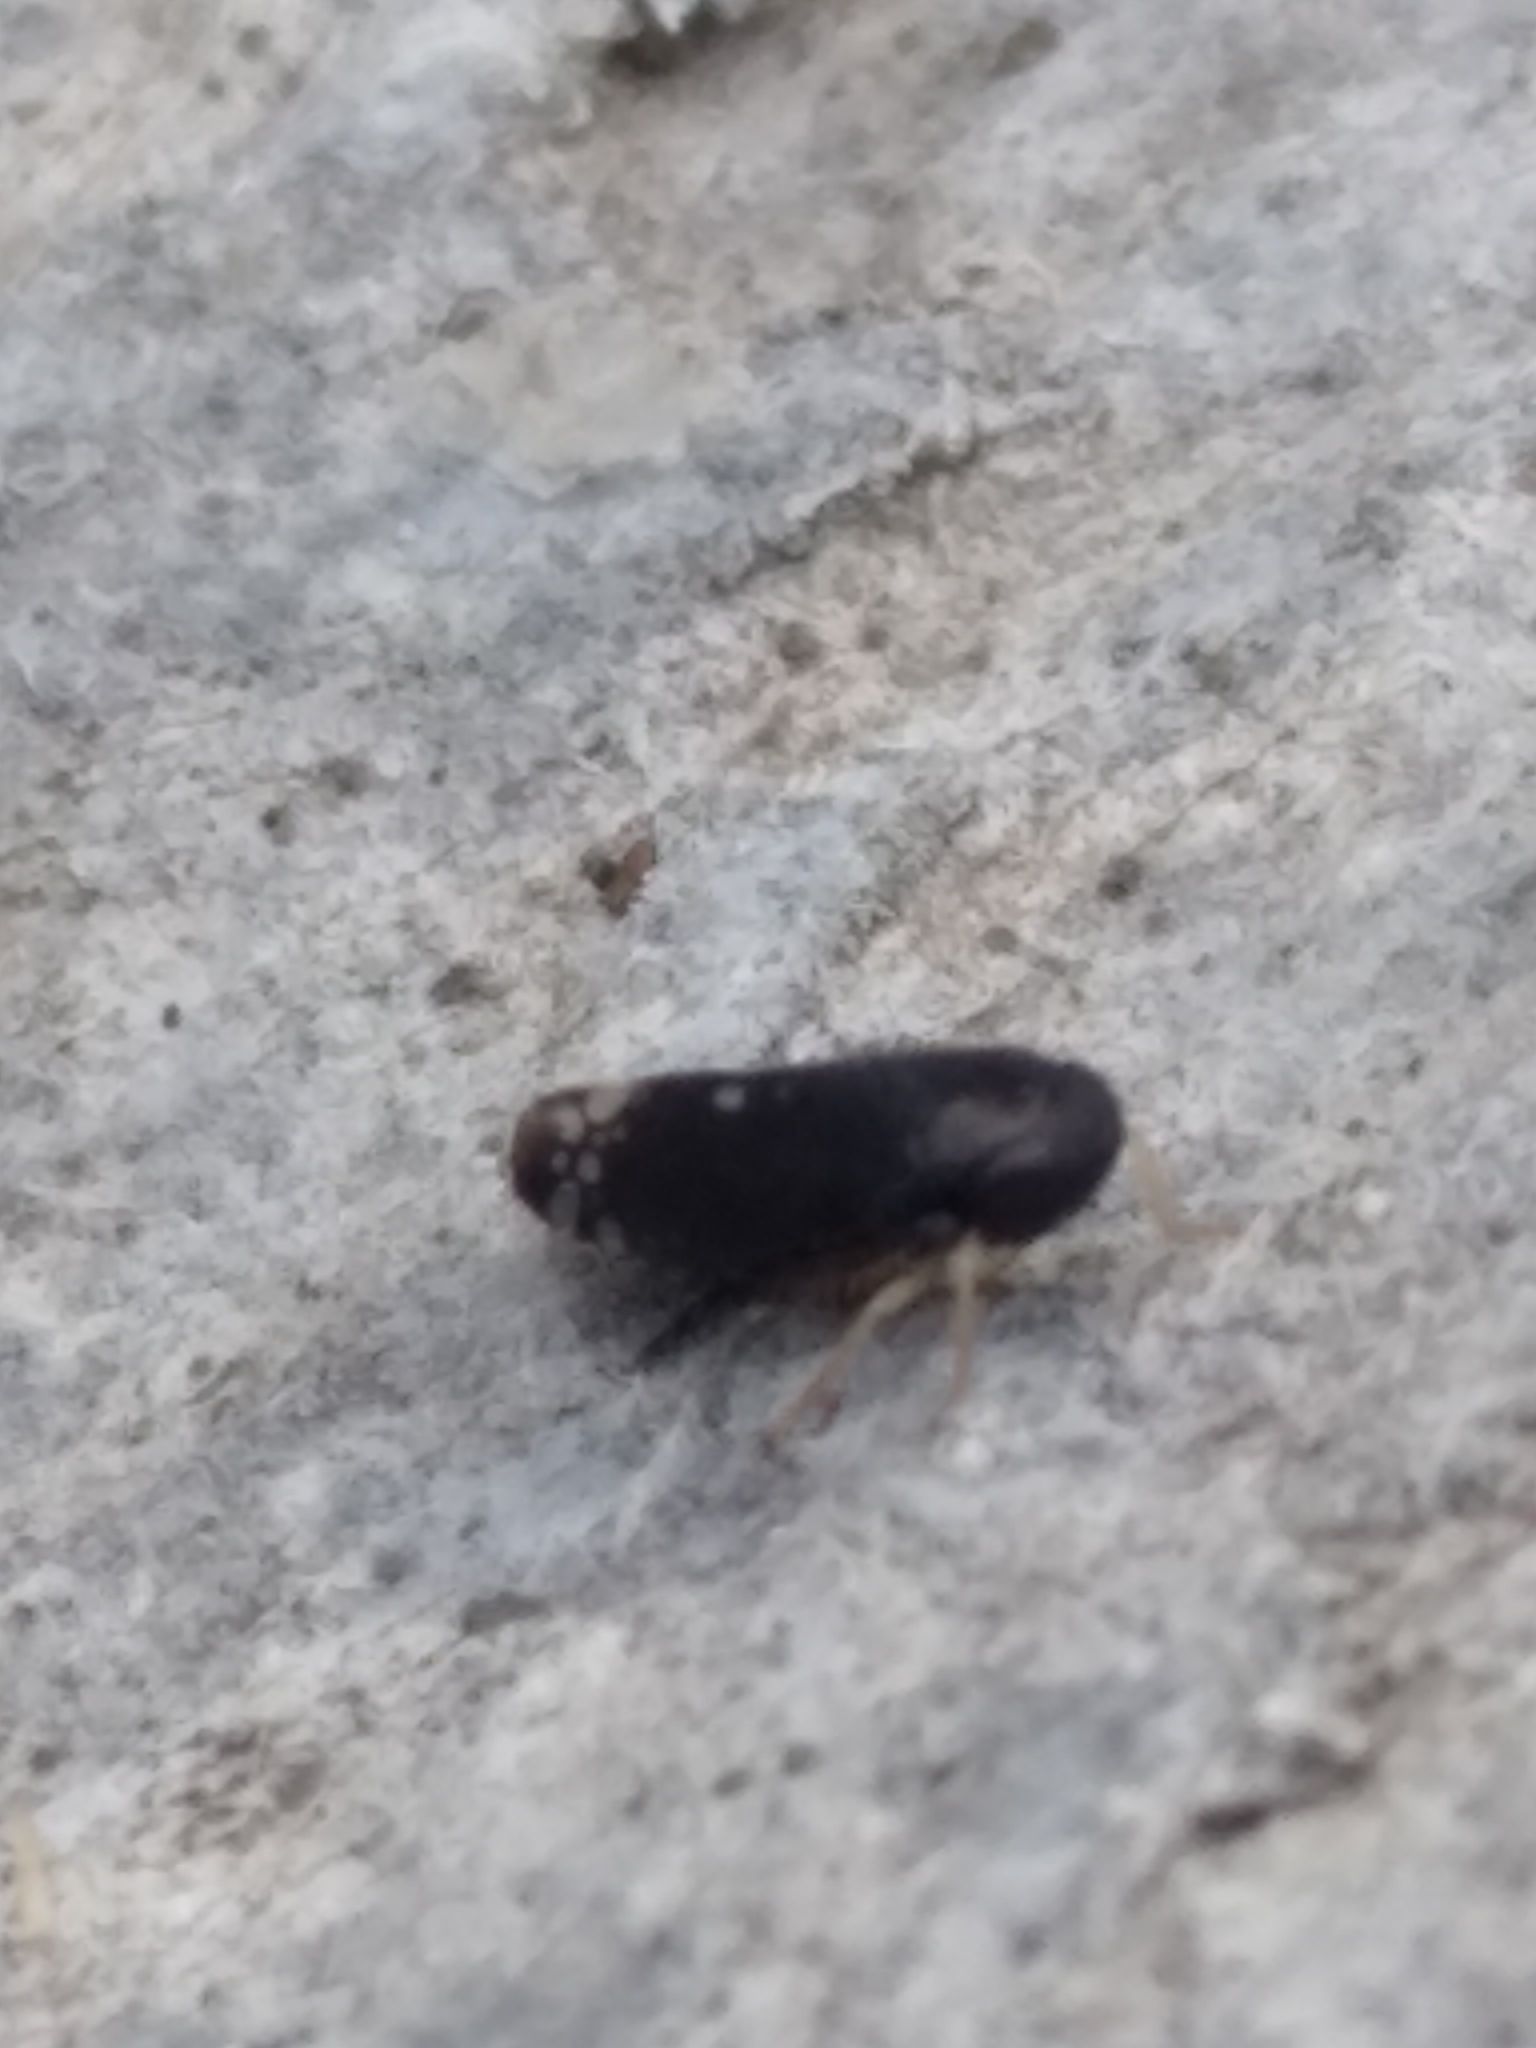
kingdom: Animalia
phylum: Arthropoda
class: Insecta
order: Hemiptera
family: Cicadellidae
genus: Neoaliturus
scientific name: Neoaliturus
